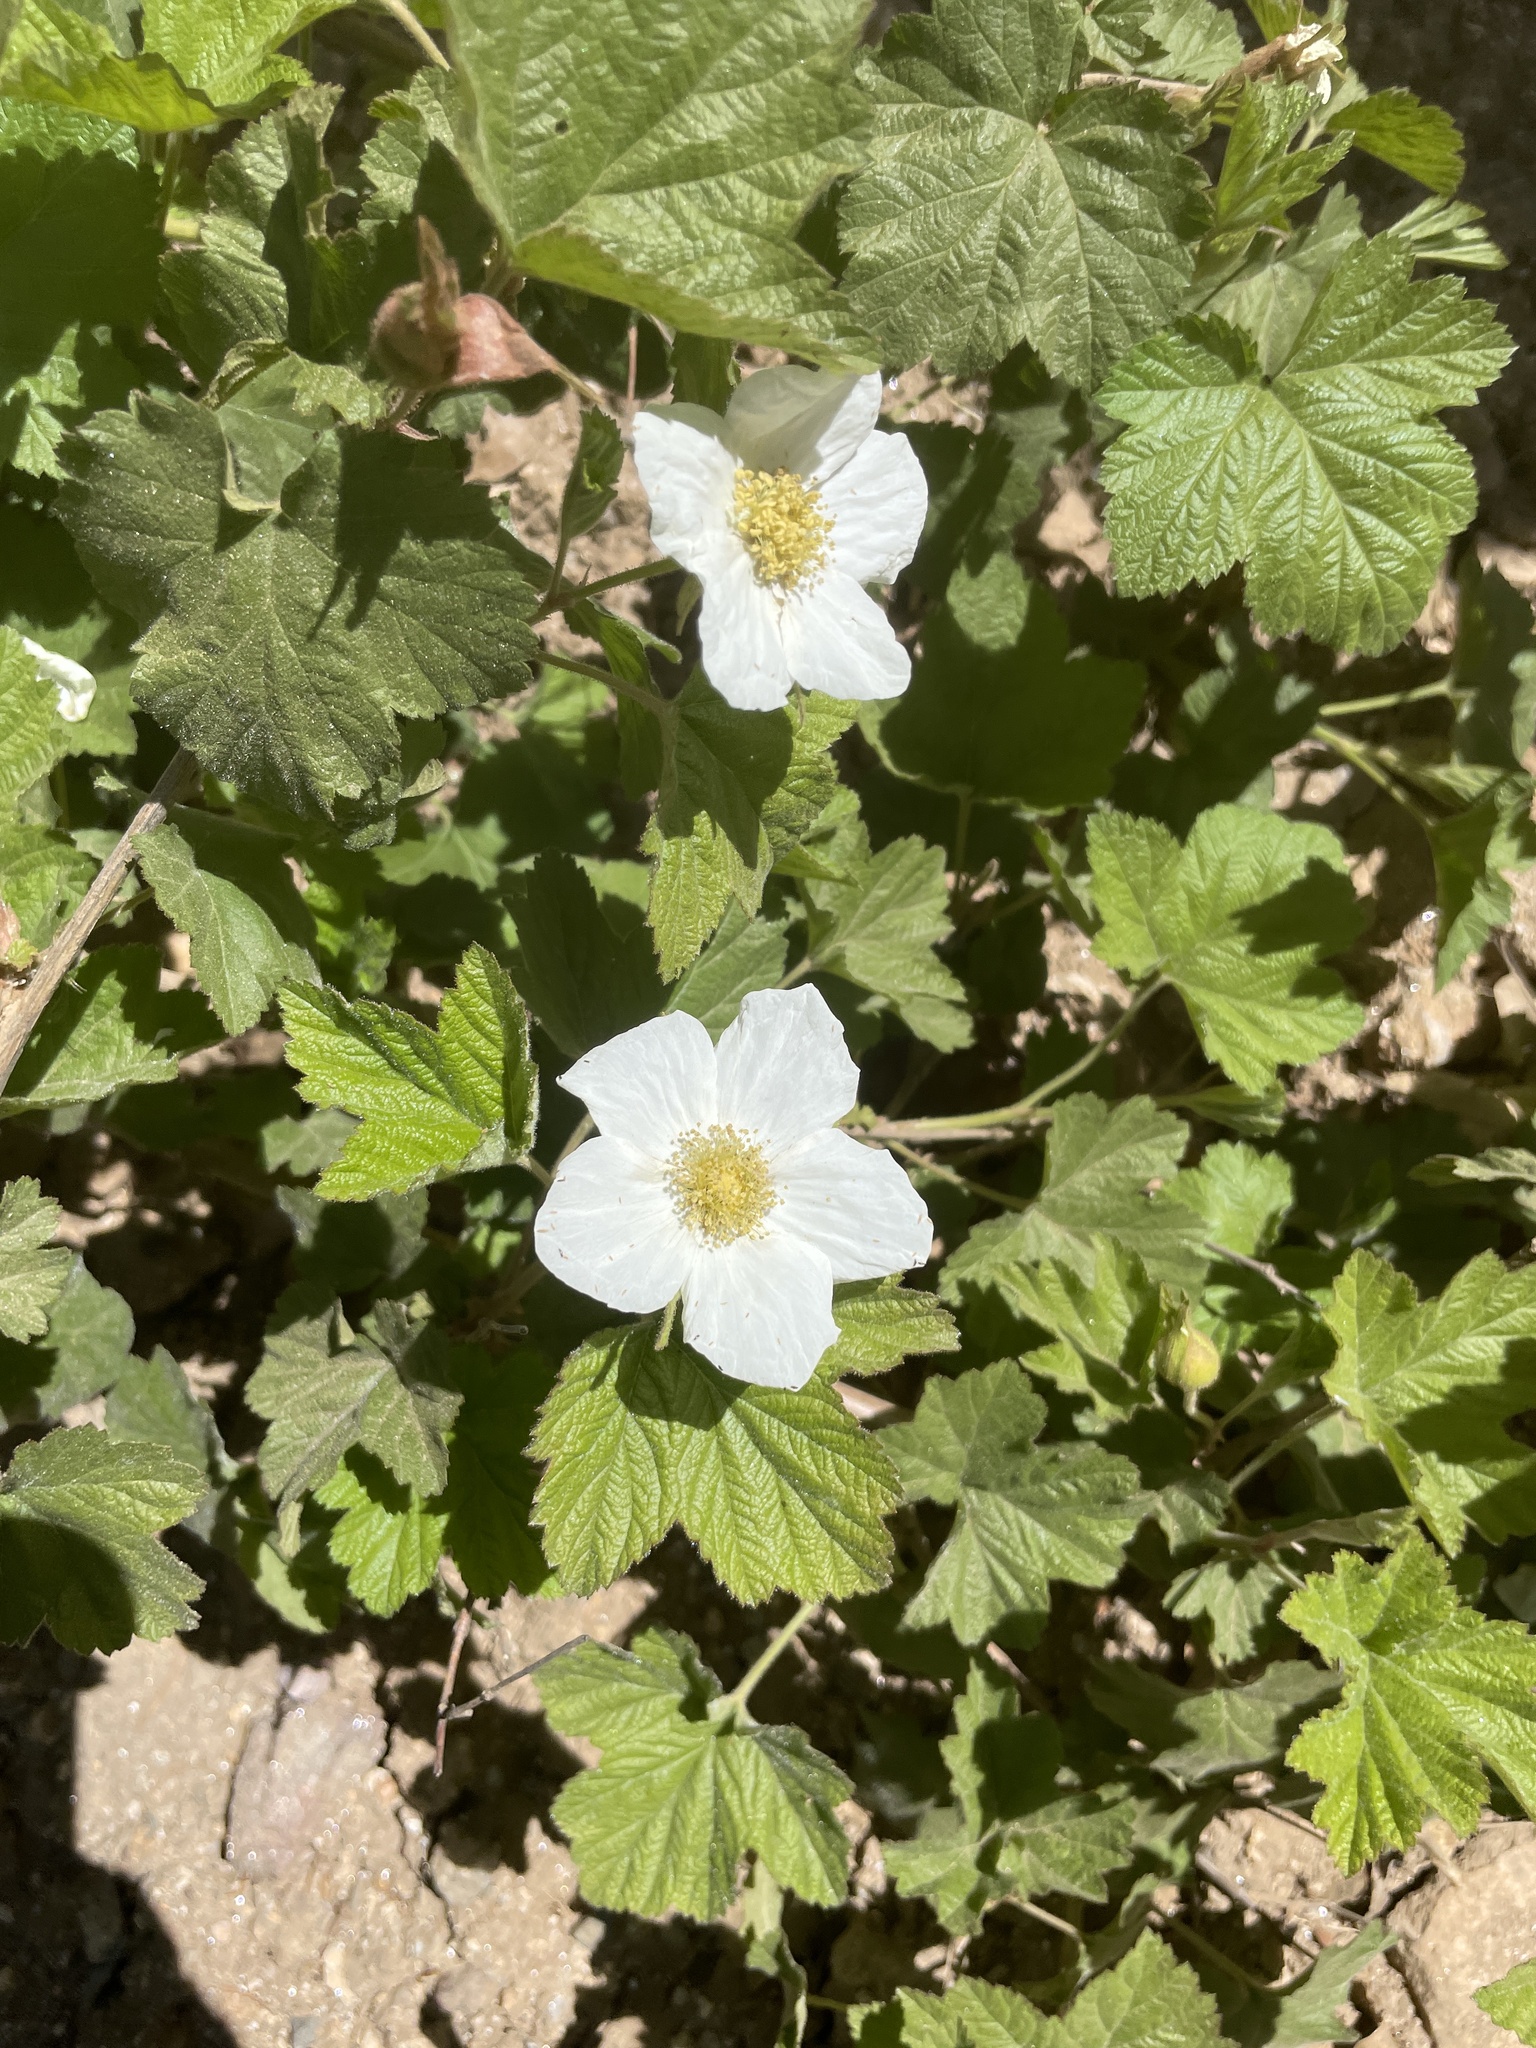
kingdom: Plantae
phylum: Tracheophyta
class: Magnoliopsida
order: Rosales
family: Rosaceae
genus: Rubus
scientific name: Rubus neomexicanus
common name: New mexico raspberry
